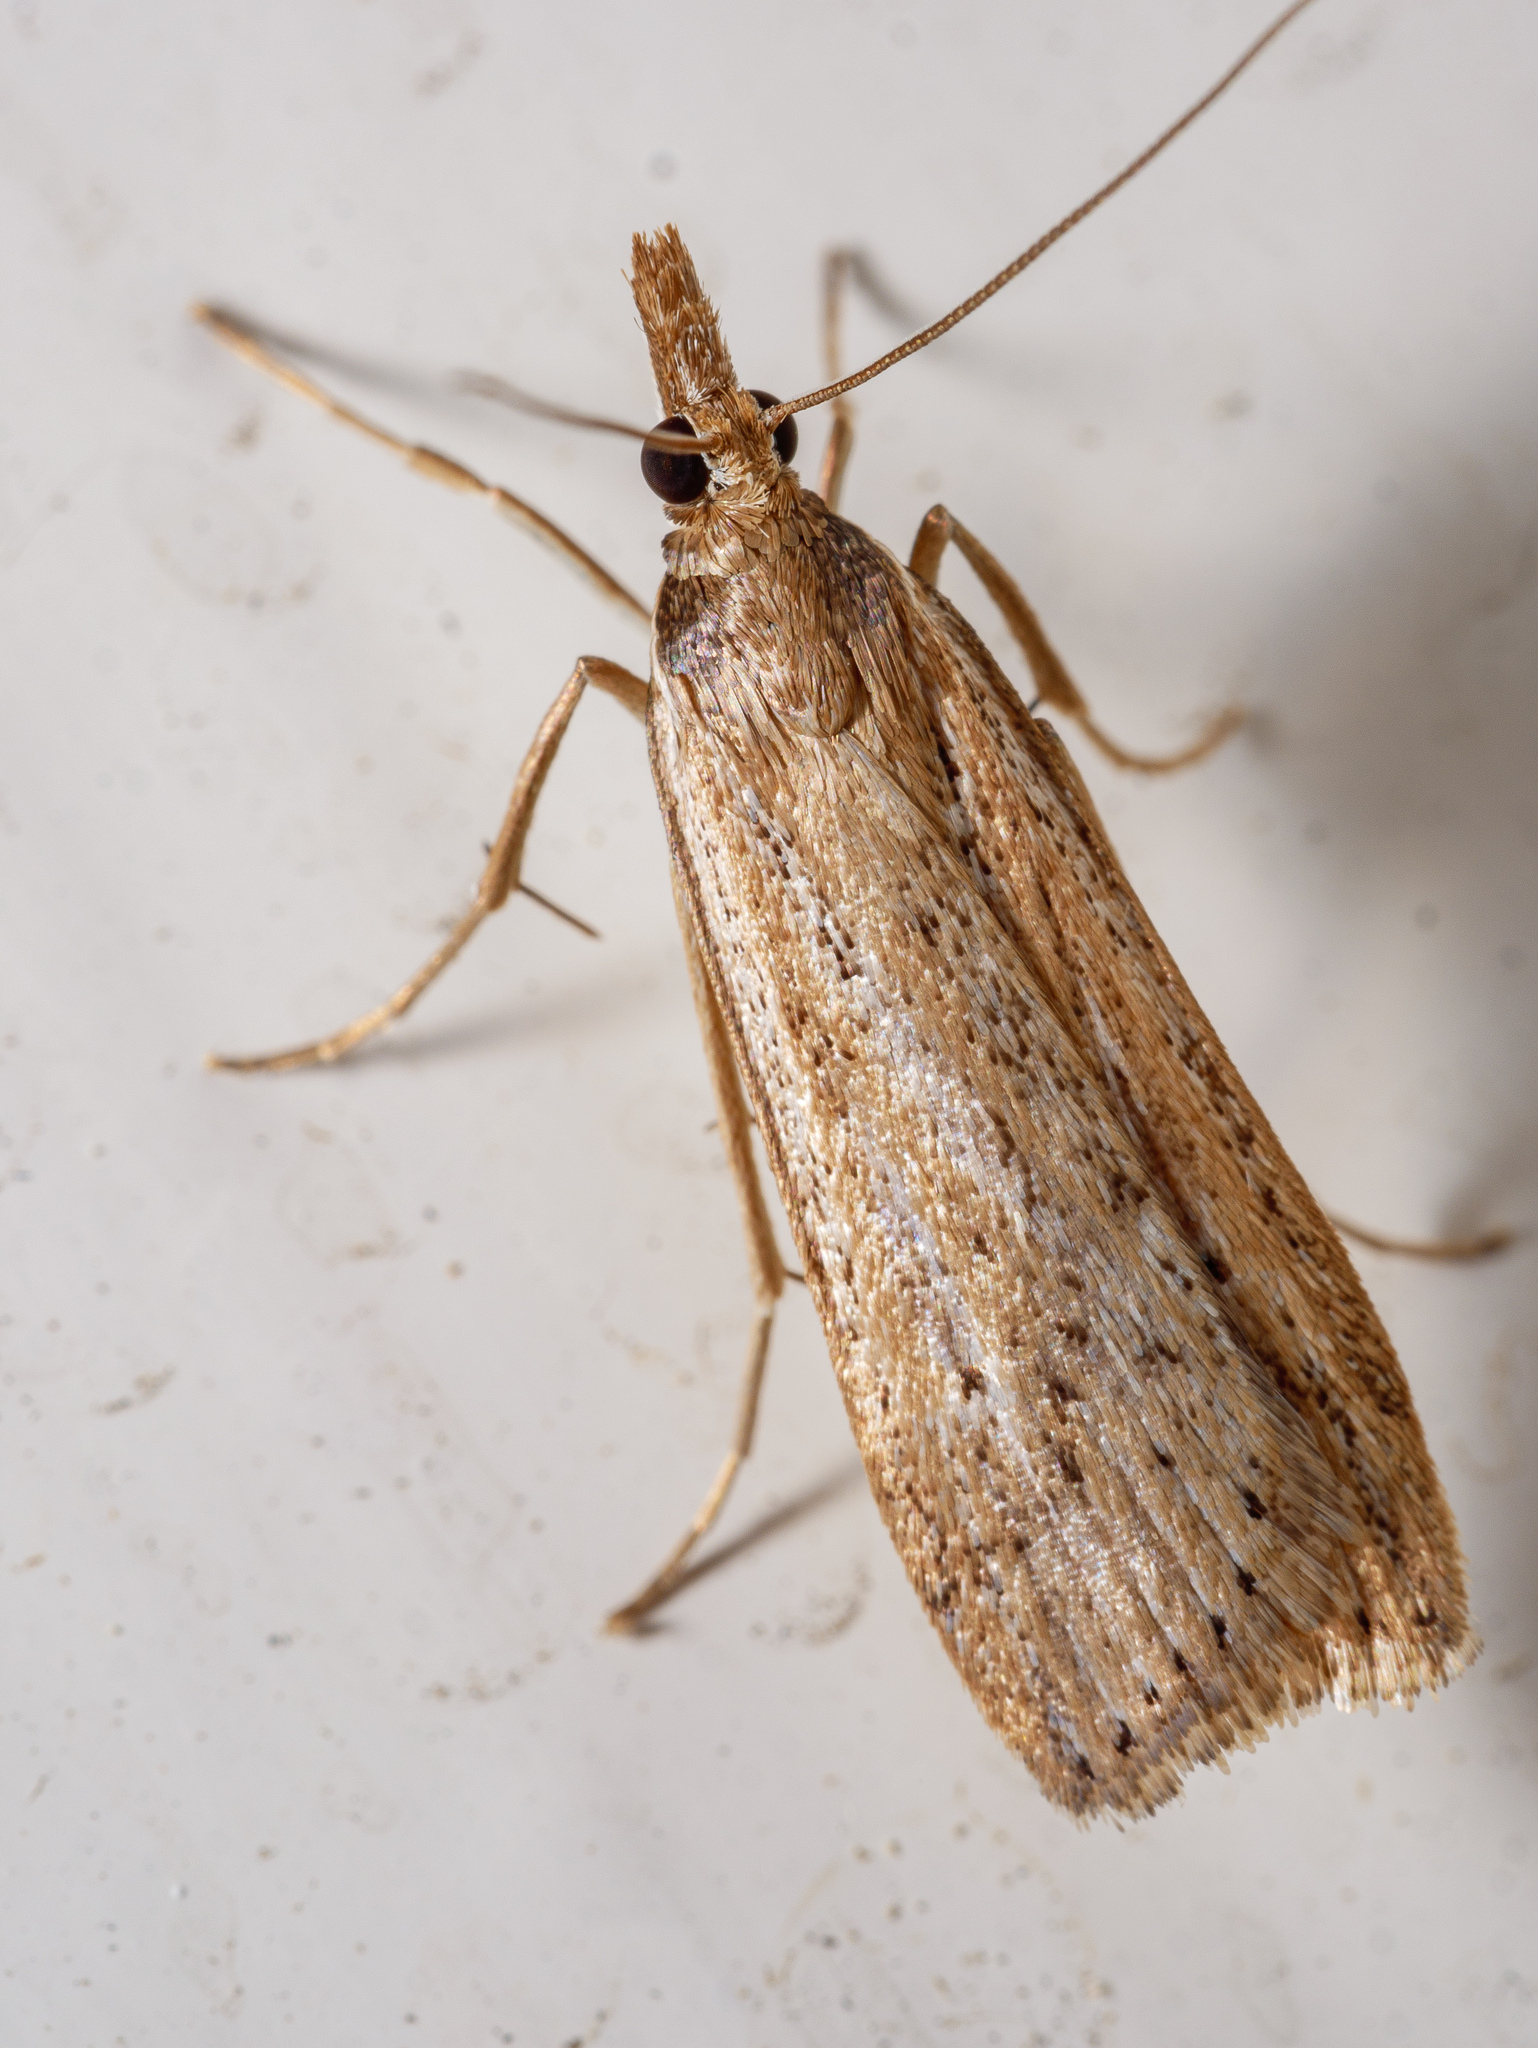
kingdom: Animalia
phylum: Arthropoda
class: Insecta
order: Lepidoptera
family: Crambidae
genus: Eudonia
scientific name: Eudonia sabulosella
